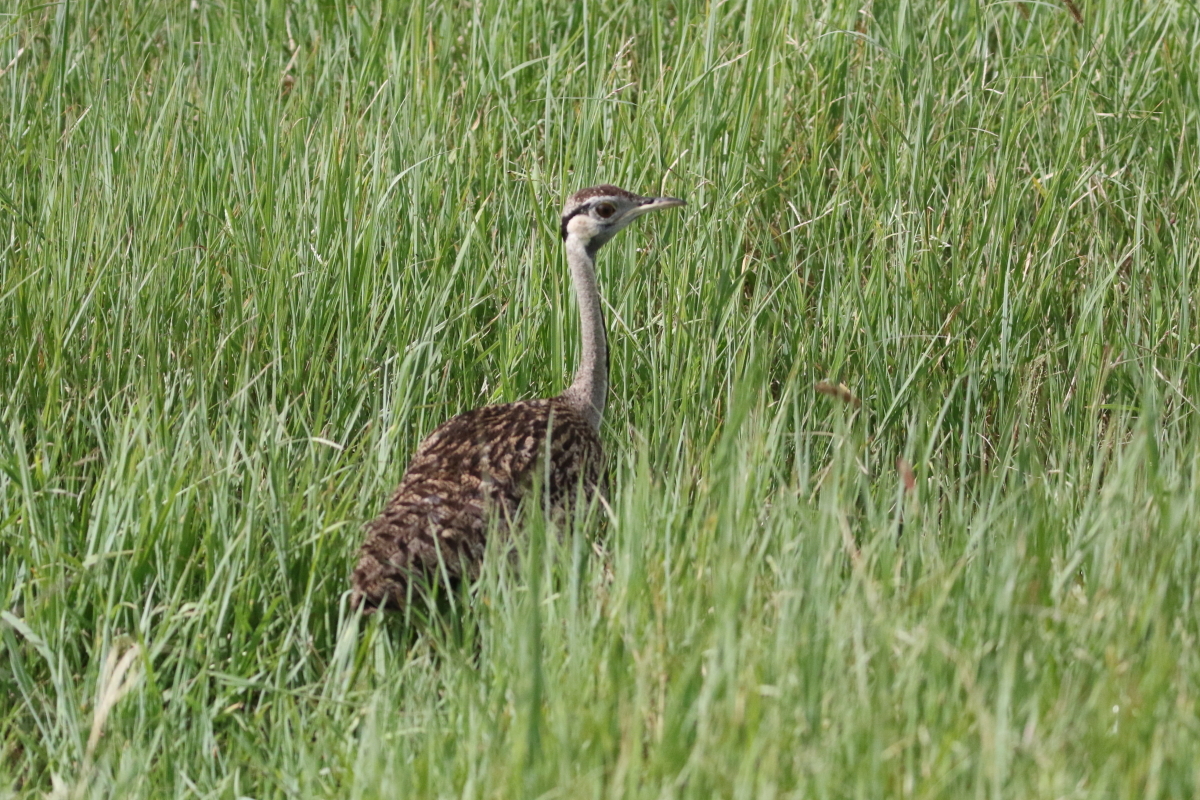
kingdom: Animalia
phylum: Chordata
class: Aves
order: Otidiformes
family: Otididae
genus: Lissotis
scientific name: Lissotis melanogaster
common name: Black-bellied bustard
